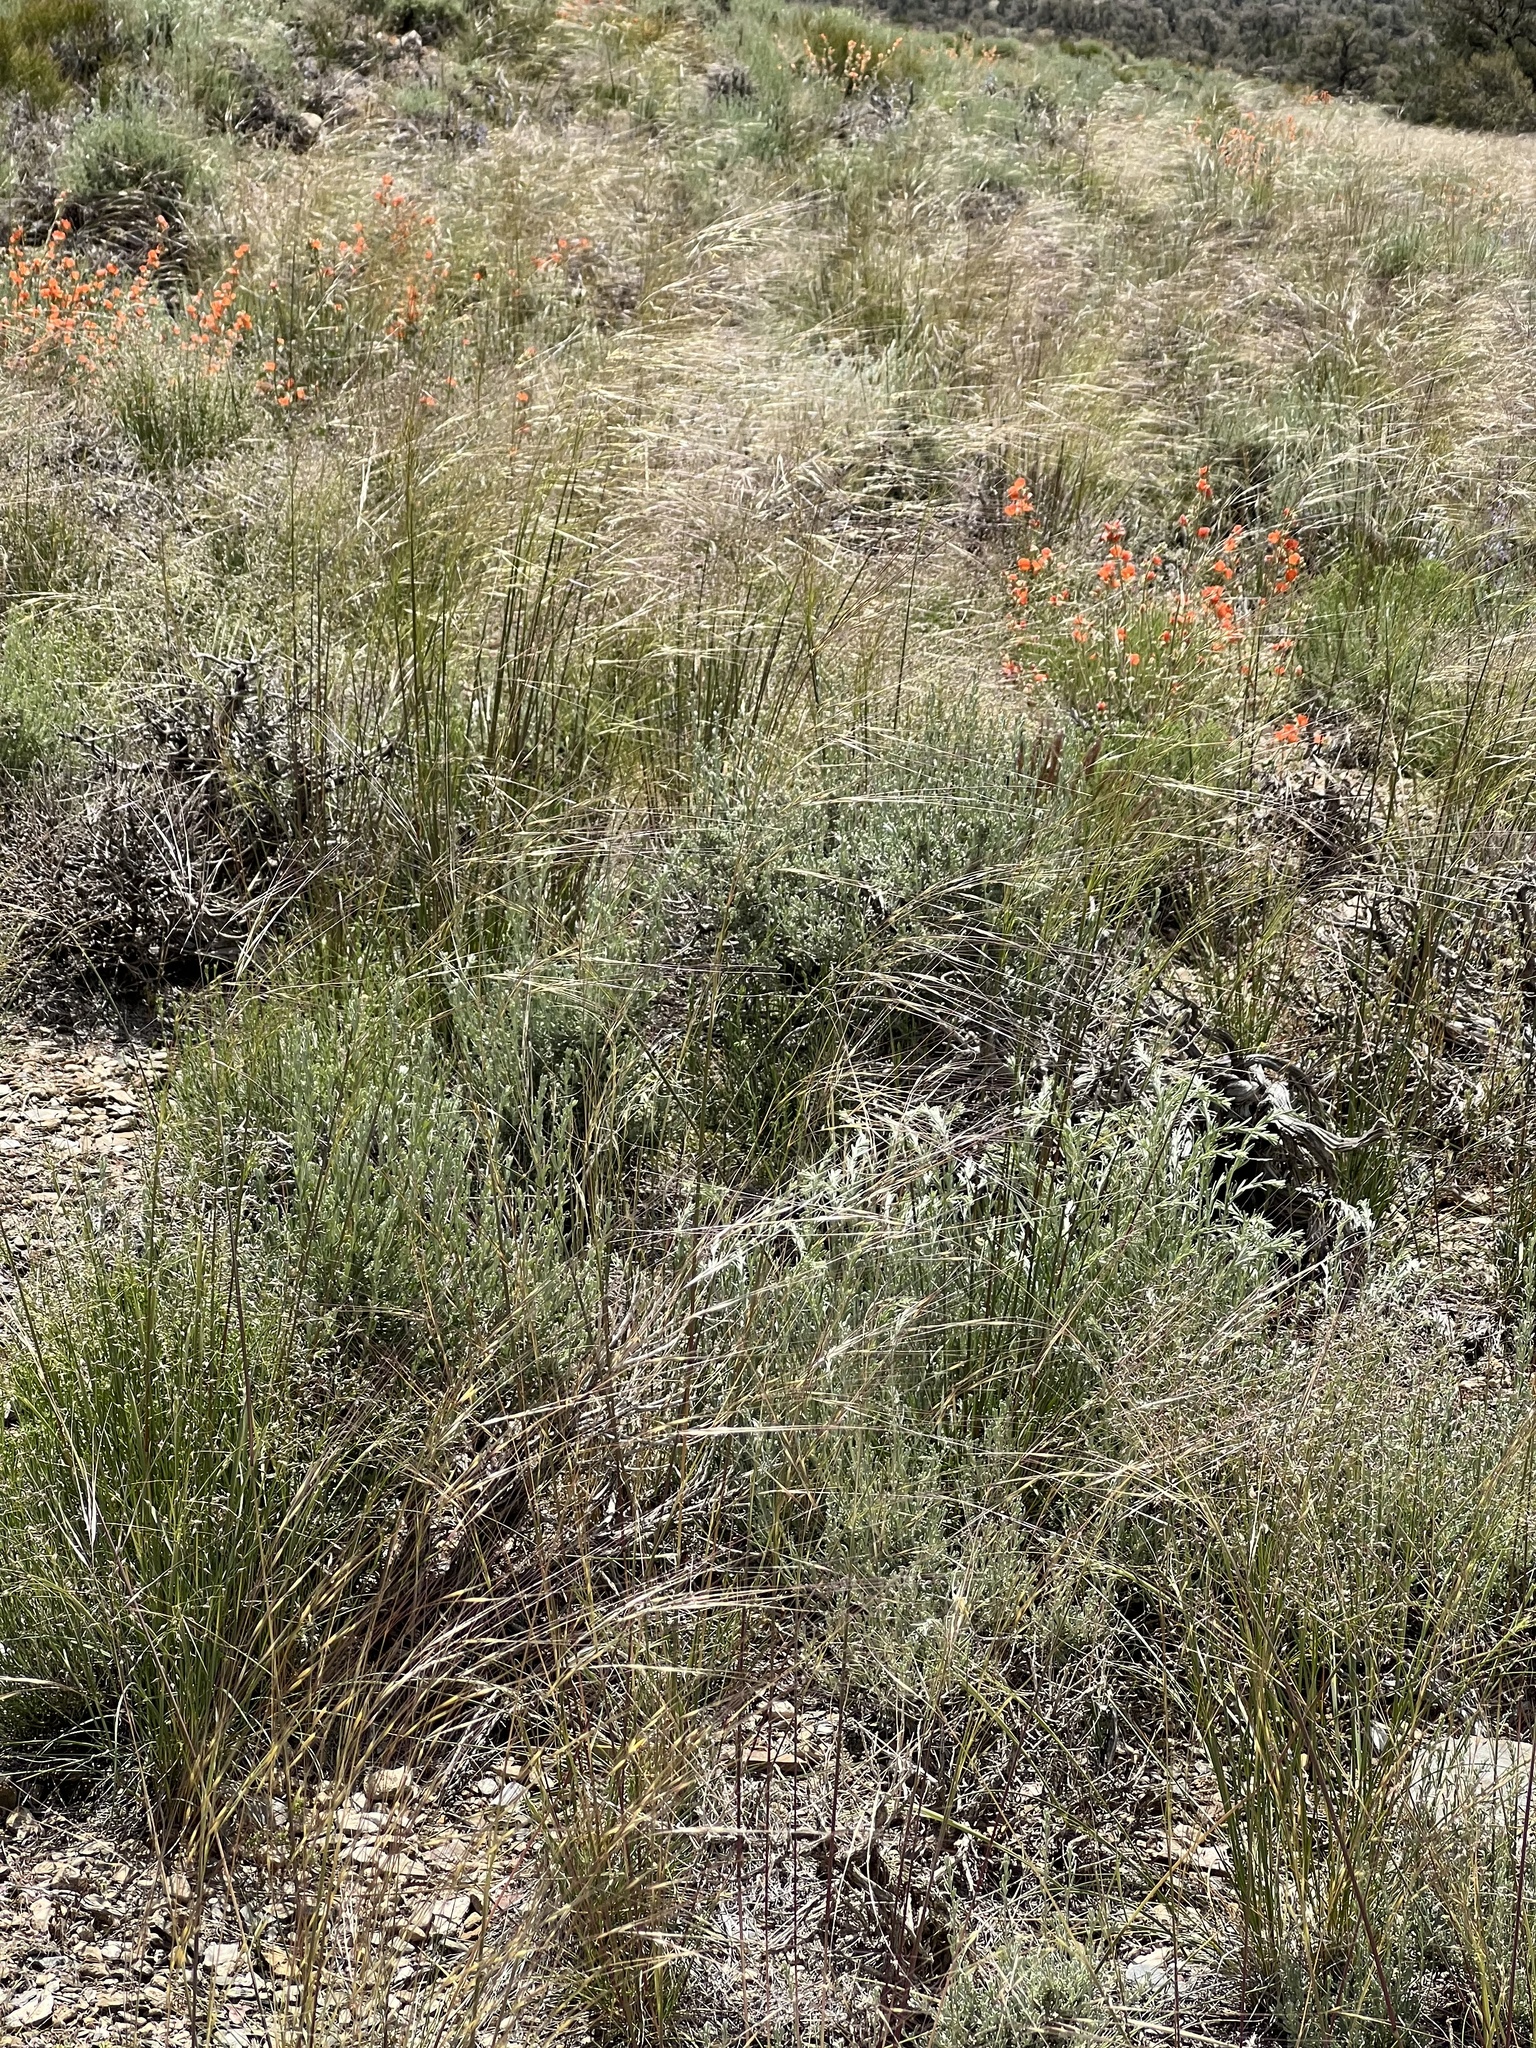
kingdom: Plantae
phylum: Tracheophyta
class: Liliopsida
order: Poales
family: Poaceae
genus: Hesperostipa
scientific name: Hesperostipa comata
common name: Needle-and-thread grass
